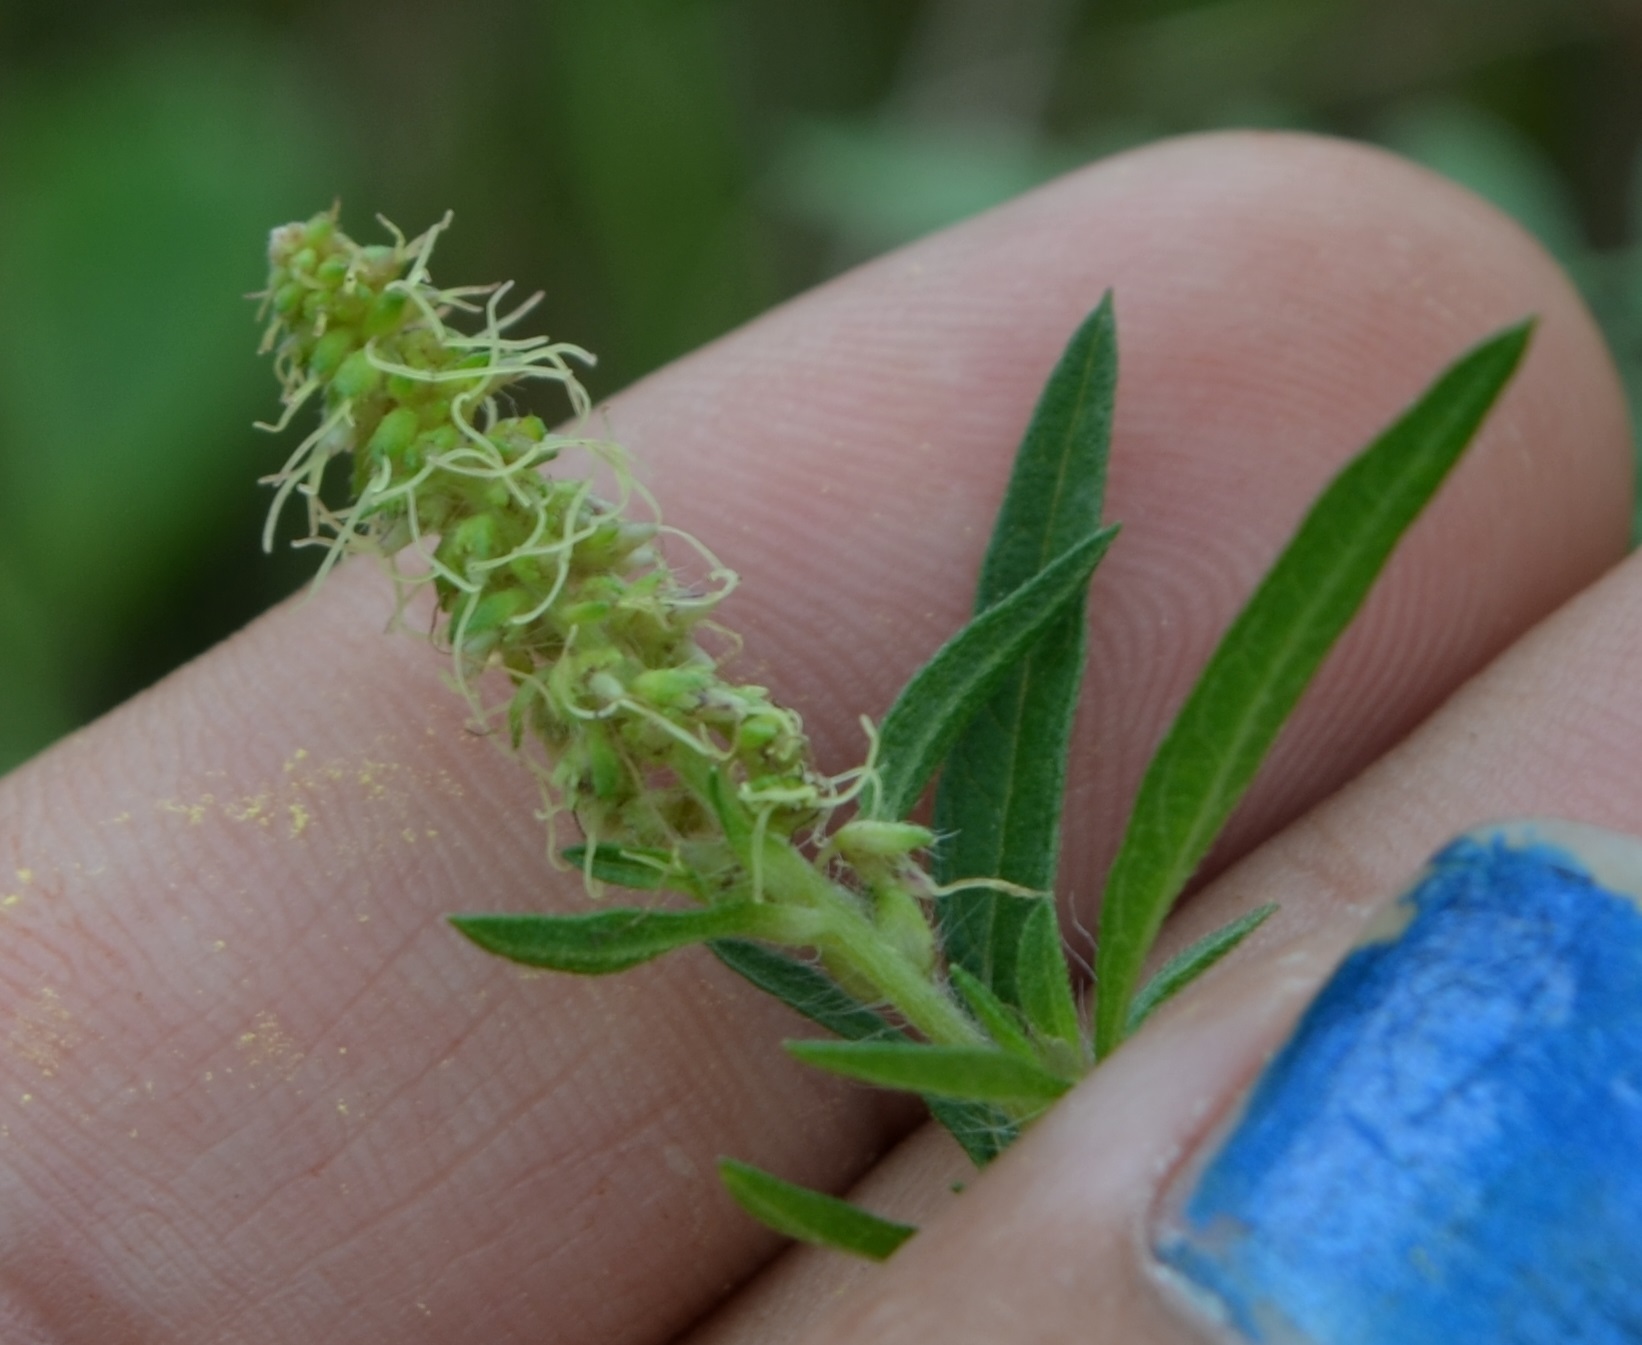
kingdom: Plantae
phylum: Tracheophyta
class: Magnoliopsida
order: Asterales
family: Asteraceae
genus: Ambrosia
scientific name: Ambrosia psilostachya
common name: Perennial ragweed
